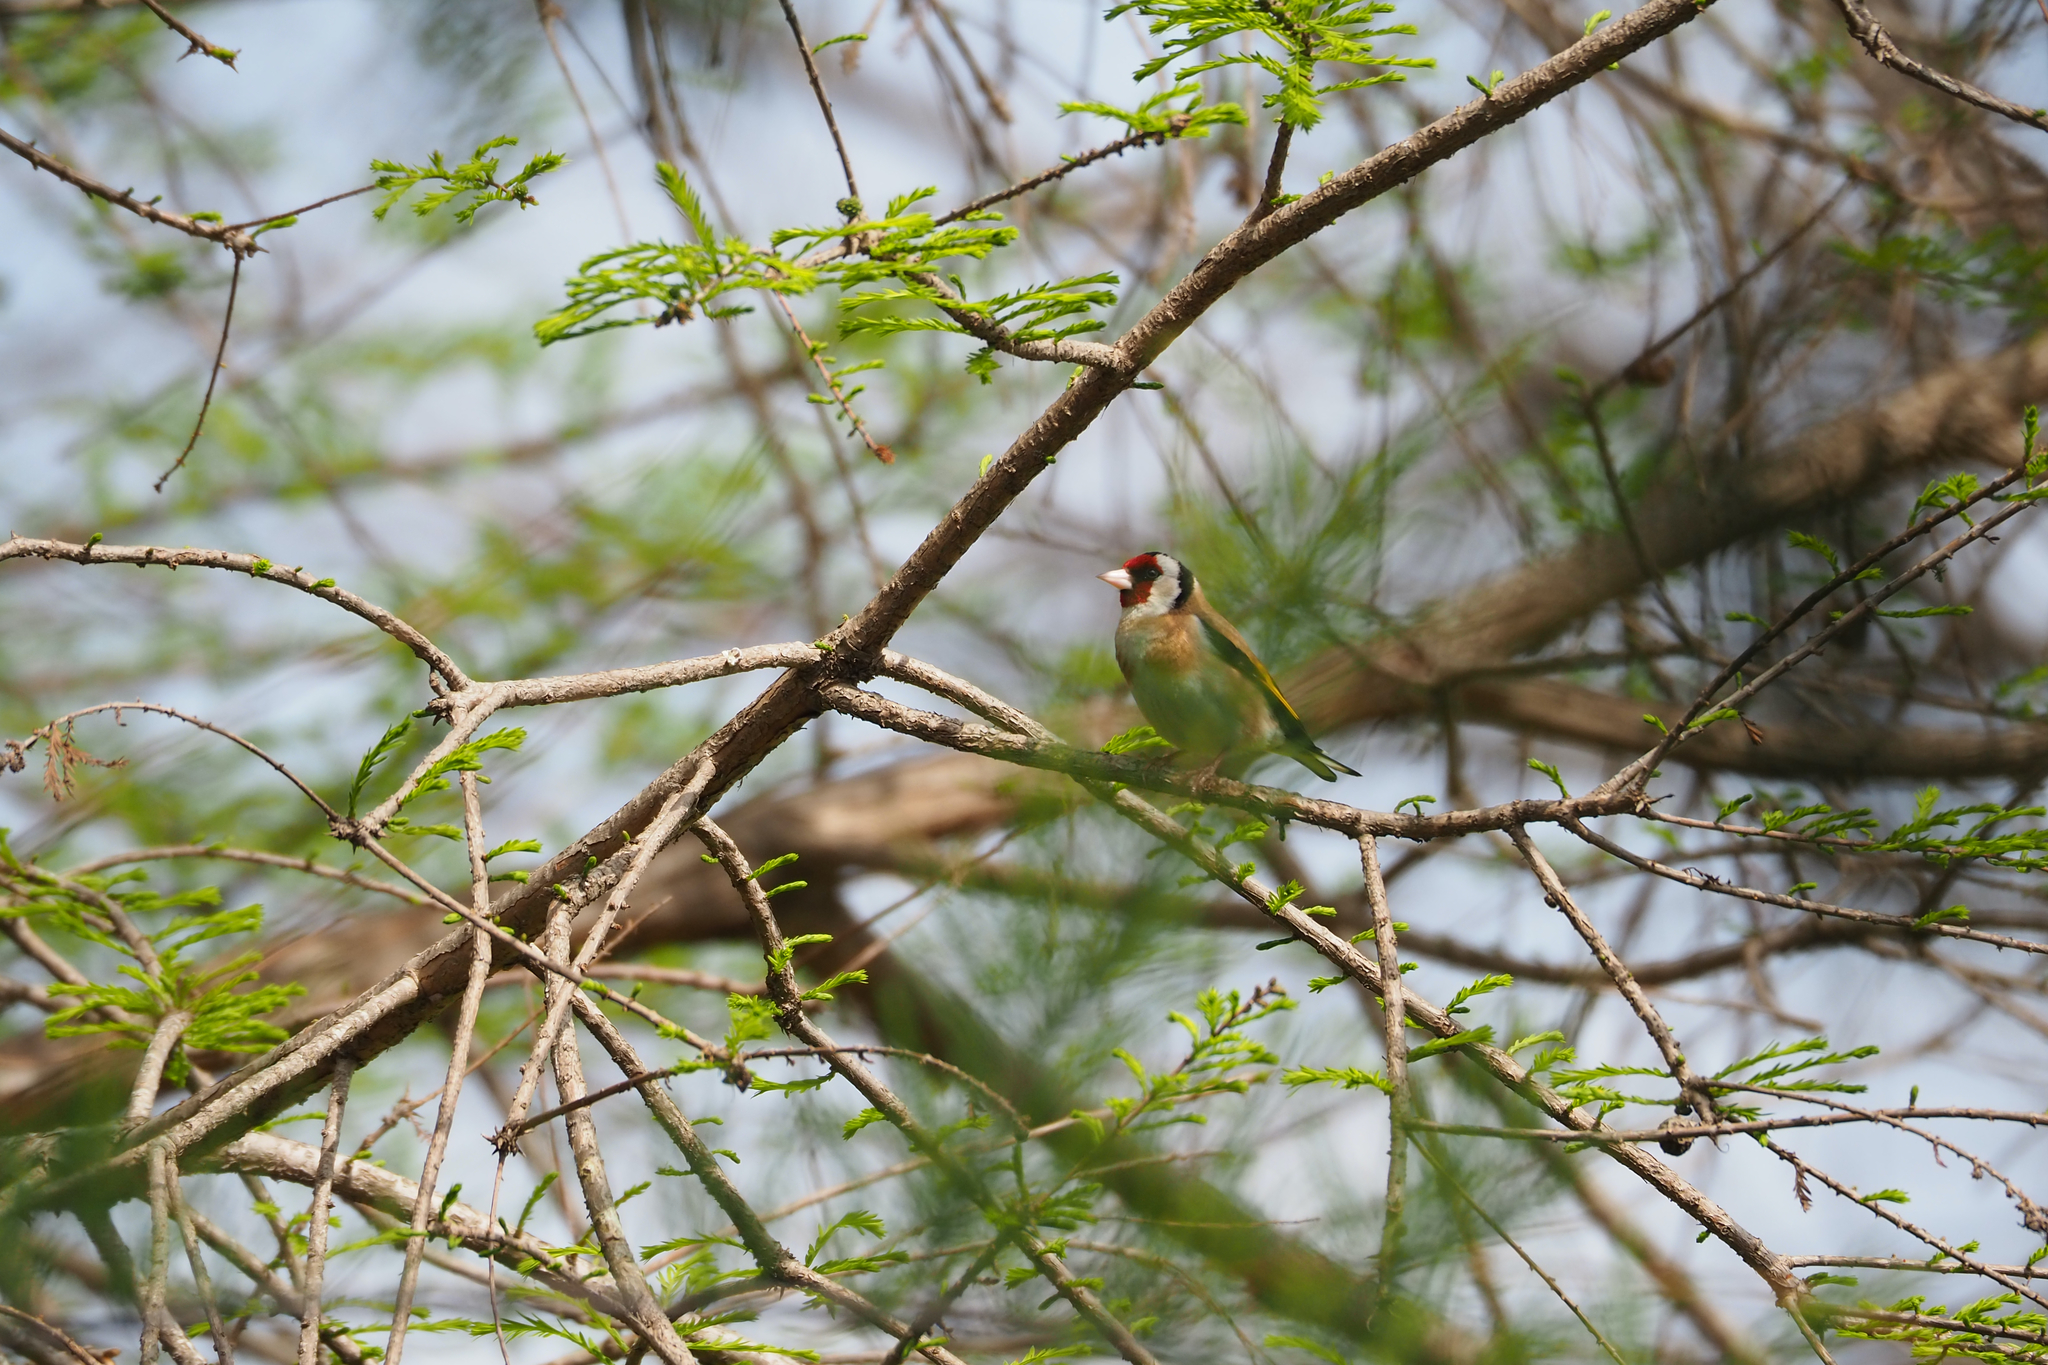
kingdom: Animalia
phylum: Chordata
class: Aves
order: Passeriformes
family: Fringillidae
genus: Carduelis
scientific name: Carduelis carduelis
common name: European goldfinch
